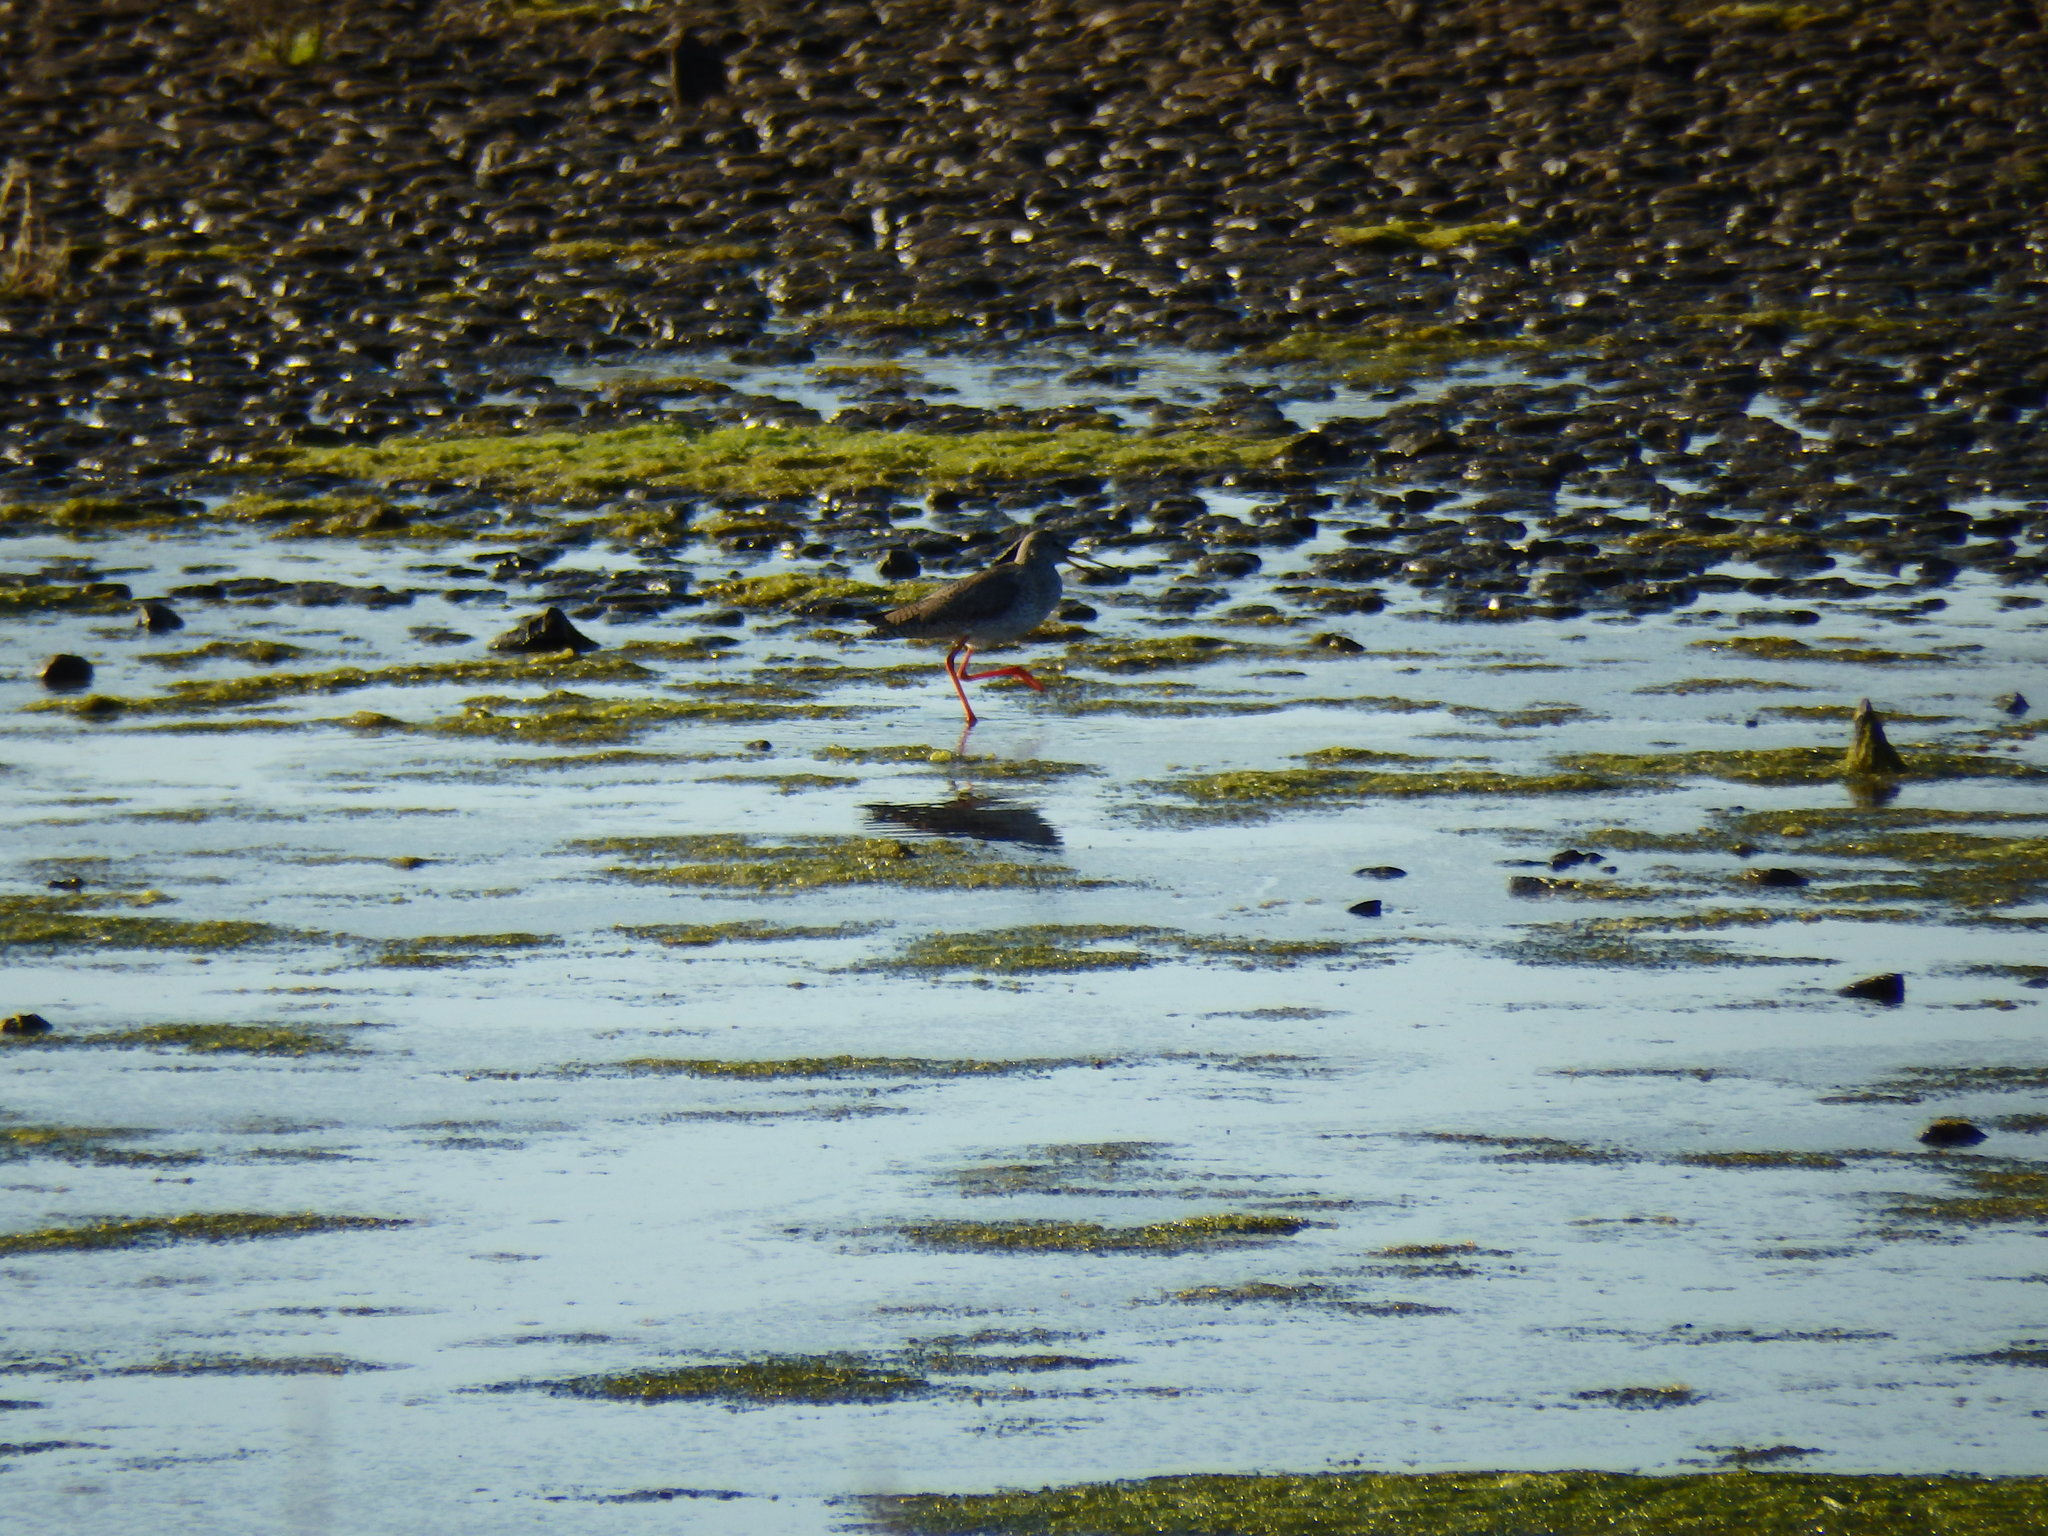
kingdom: Animalia
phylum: Chordata
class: Aves
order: Charadriiformes
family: Scolopacidae
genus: Tringa
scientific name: Tringa totanus
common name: Common redshank
